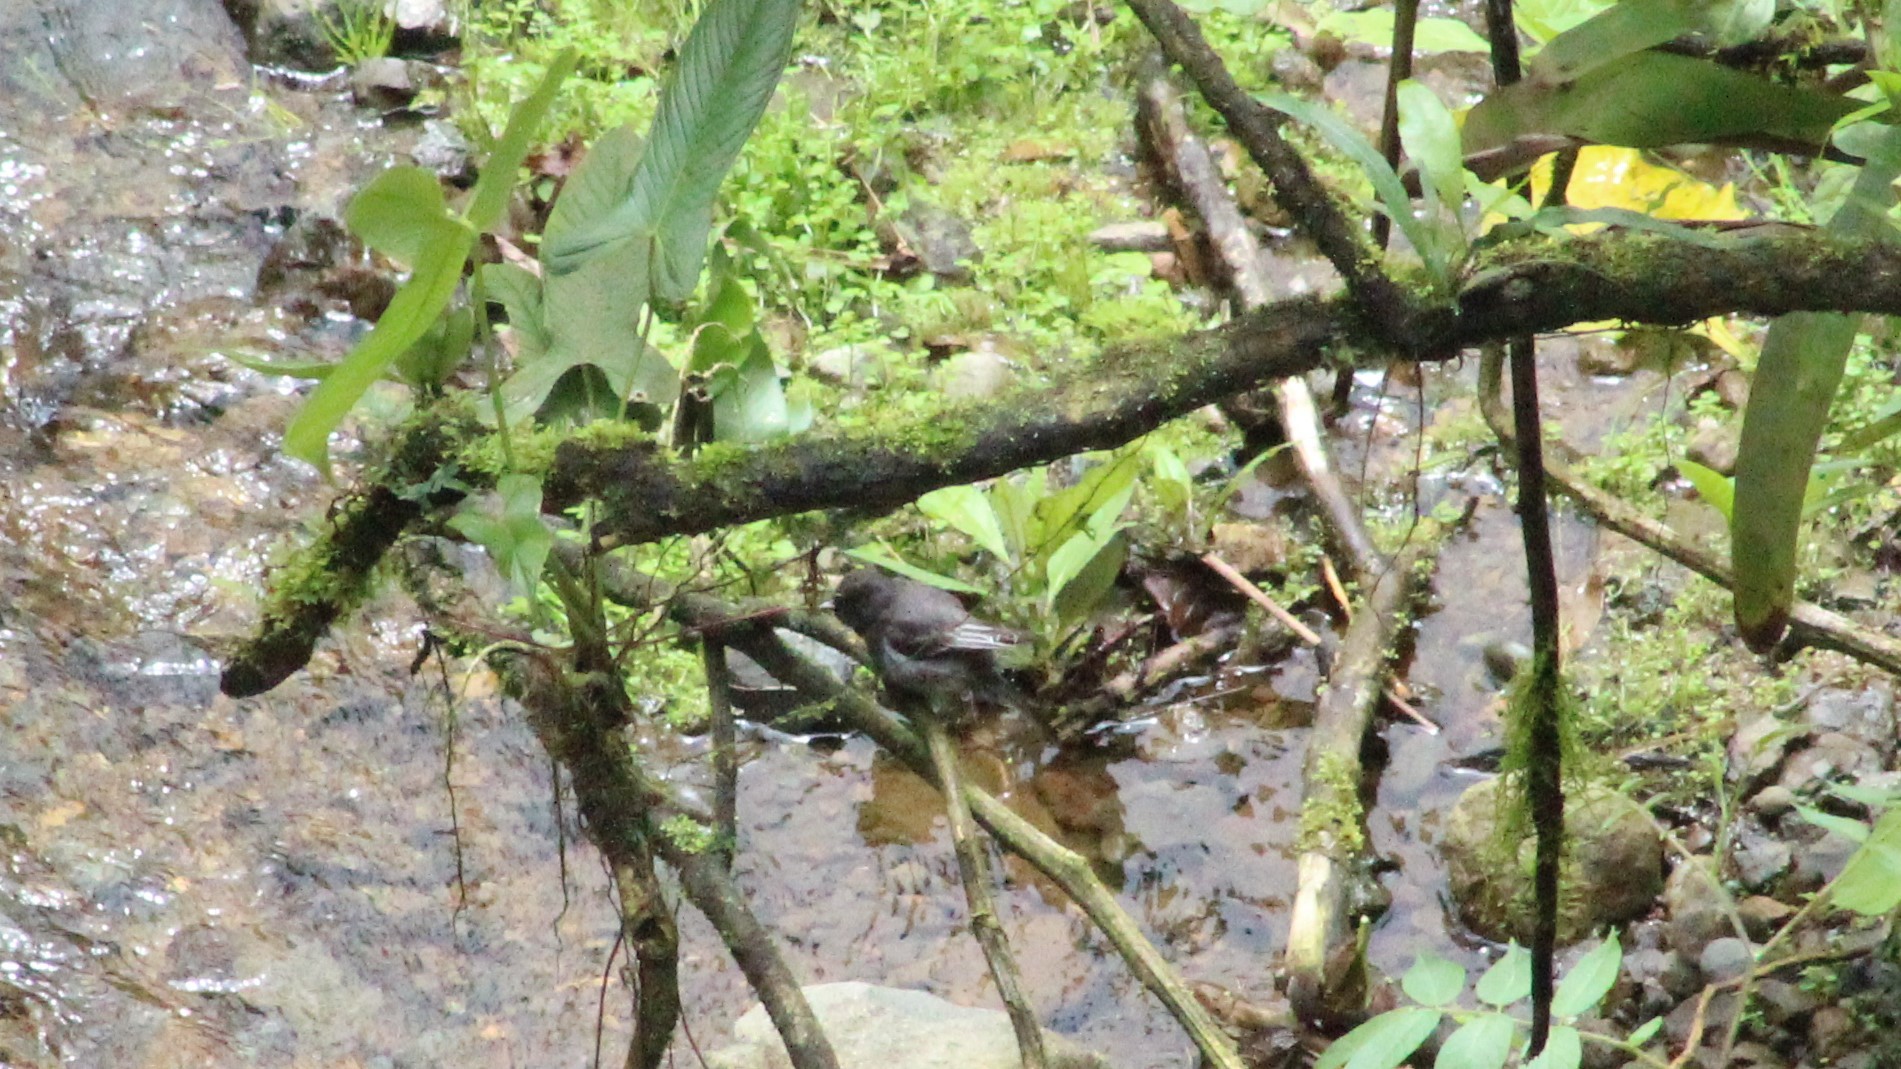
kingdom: Animalia
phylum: Chordata
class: Aves
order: Passeriformes
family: Tyrannidae
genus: Sayornis
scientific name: Sayornis nigricans
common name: Black phoebe
